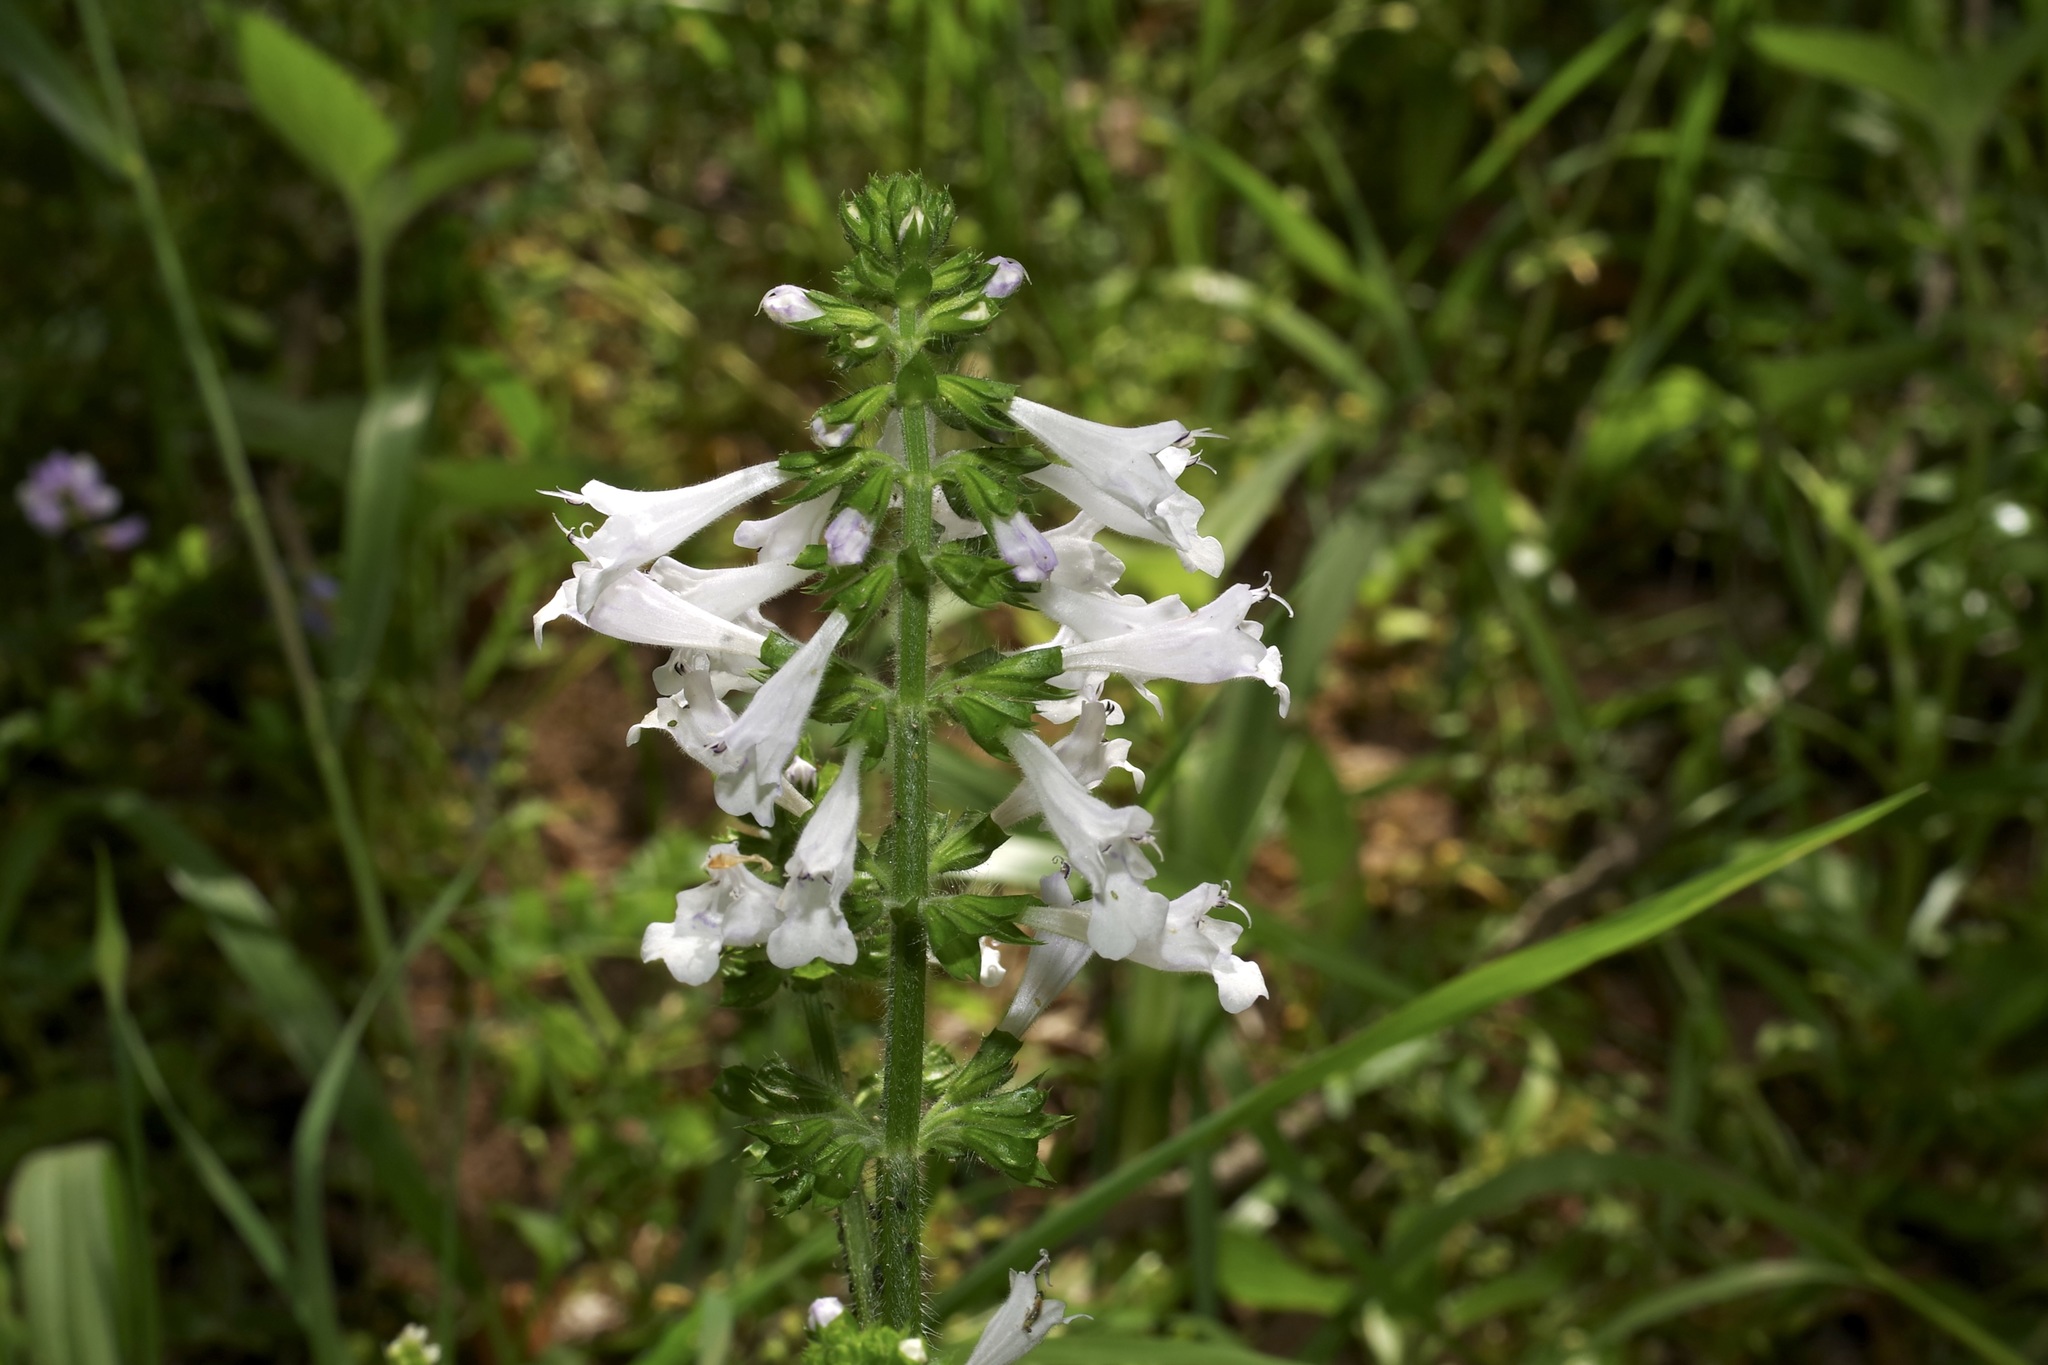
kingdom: Plantae
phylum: Tracheophyta
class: Magnoliopsida
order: Lamiales
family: Lamiaceae
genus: Salvia
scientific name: Salvia lyrata
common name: Cancerweed
